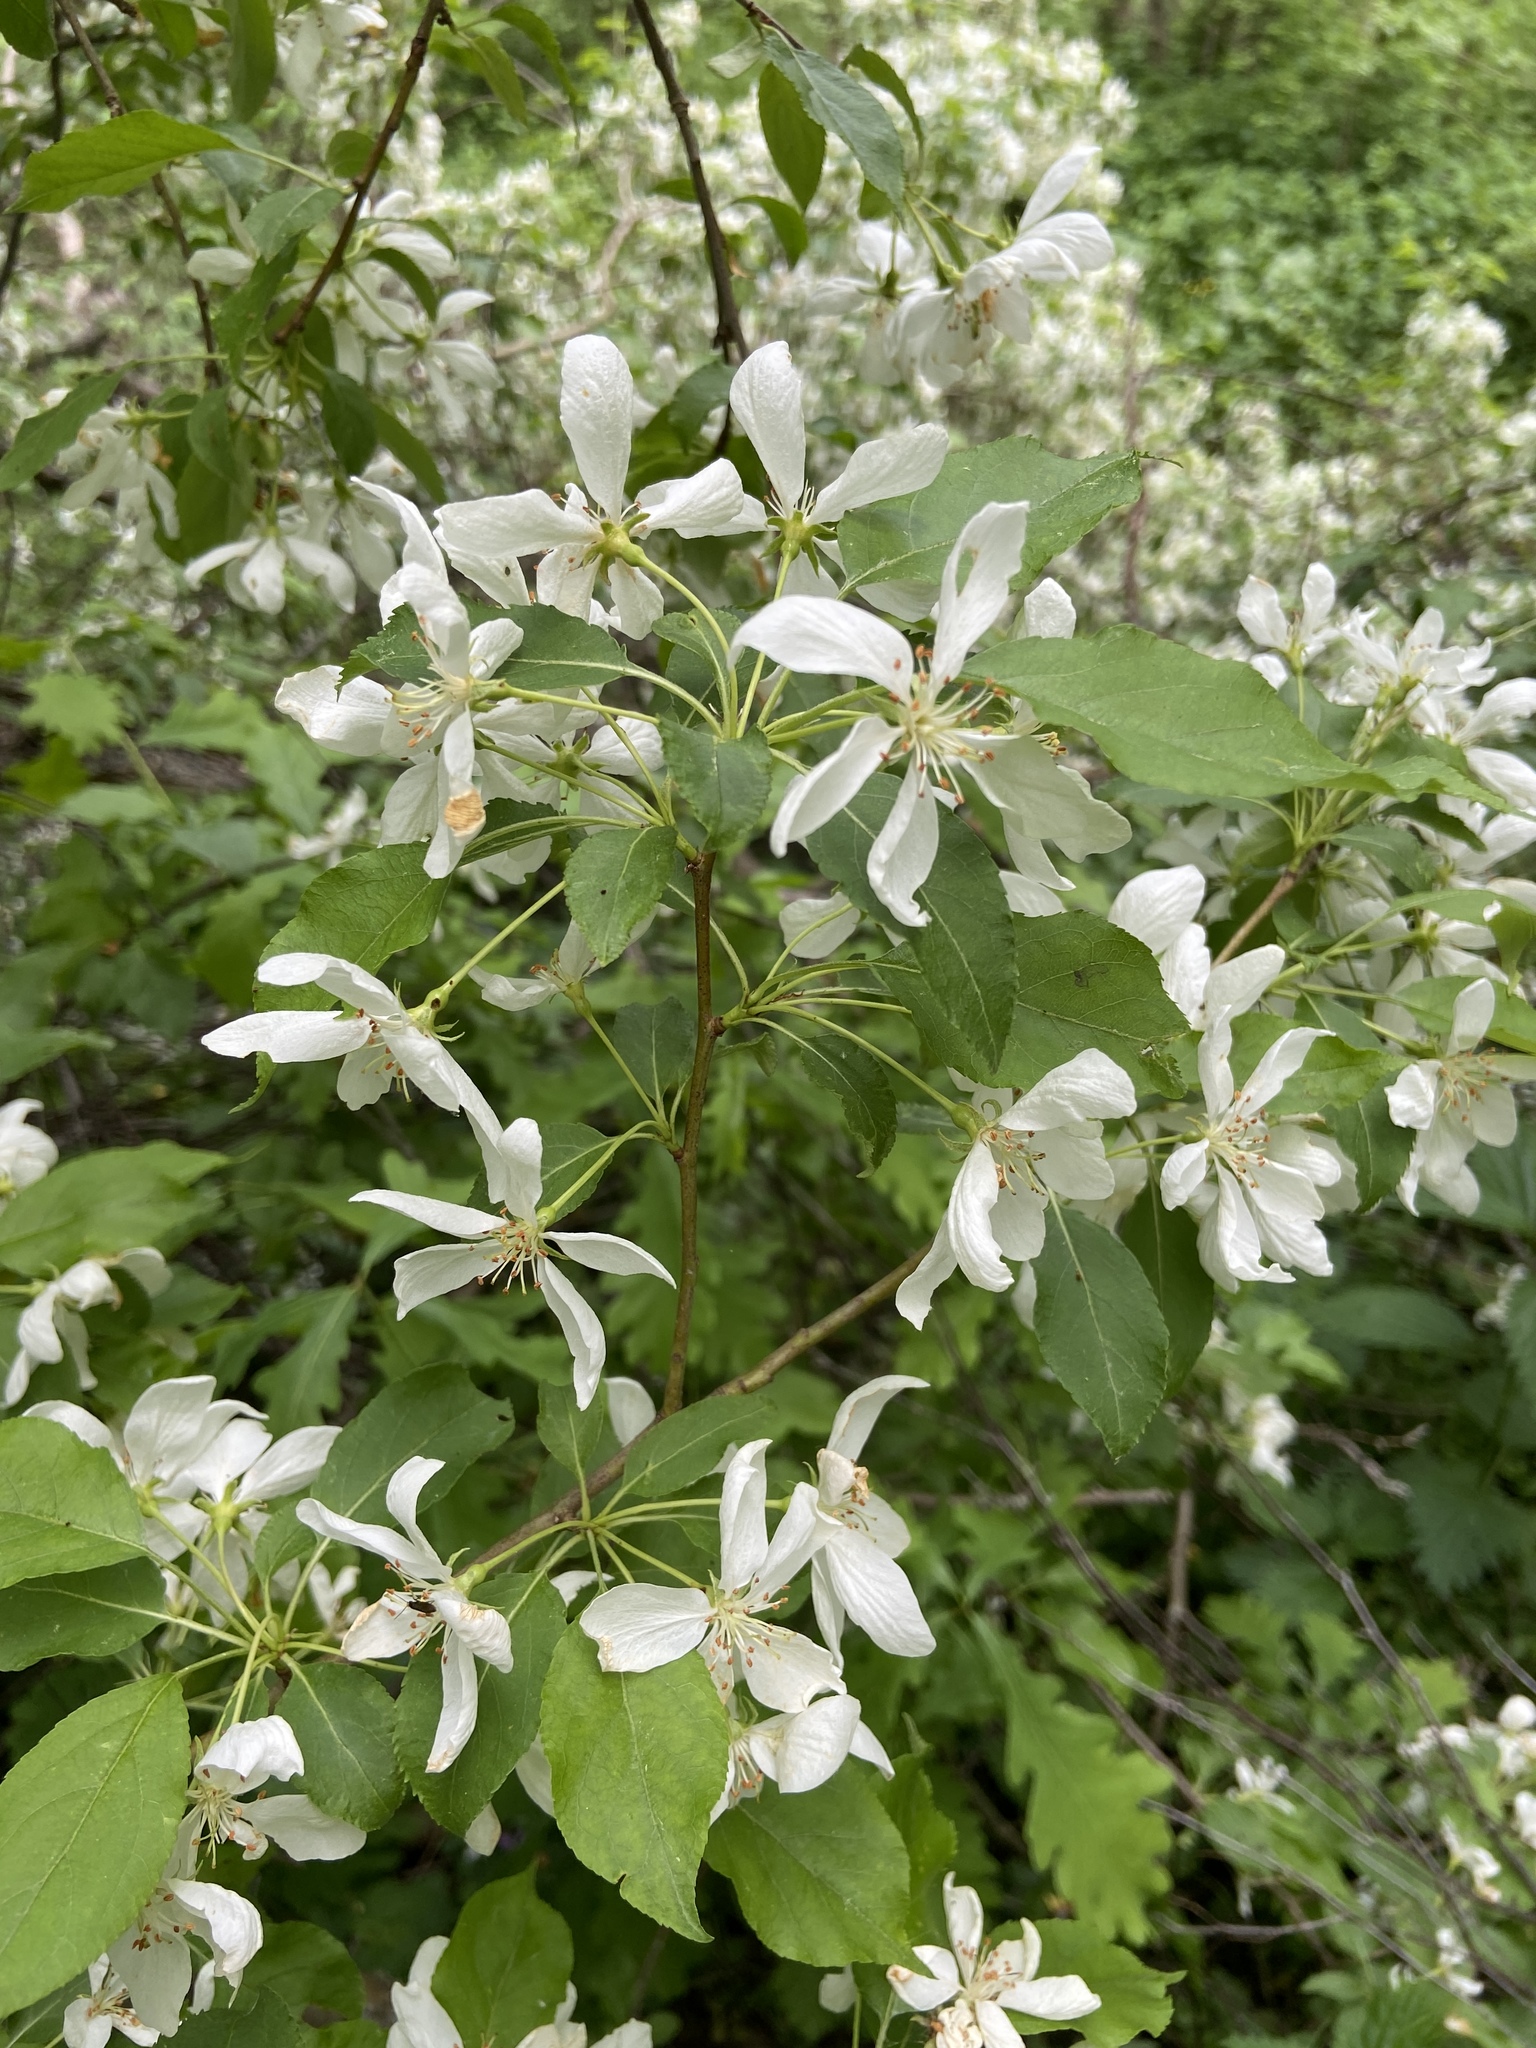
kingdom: Plantae
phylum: Tracheophyta
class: Magnoliopsida
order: Rosales
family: Rosaceae
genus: Malus
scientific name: Malus baccata
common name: Siberian crab
